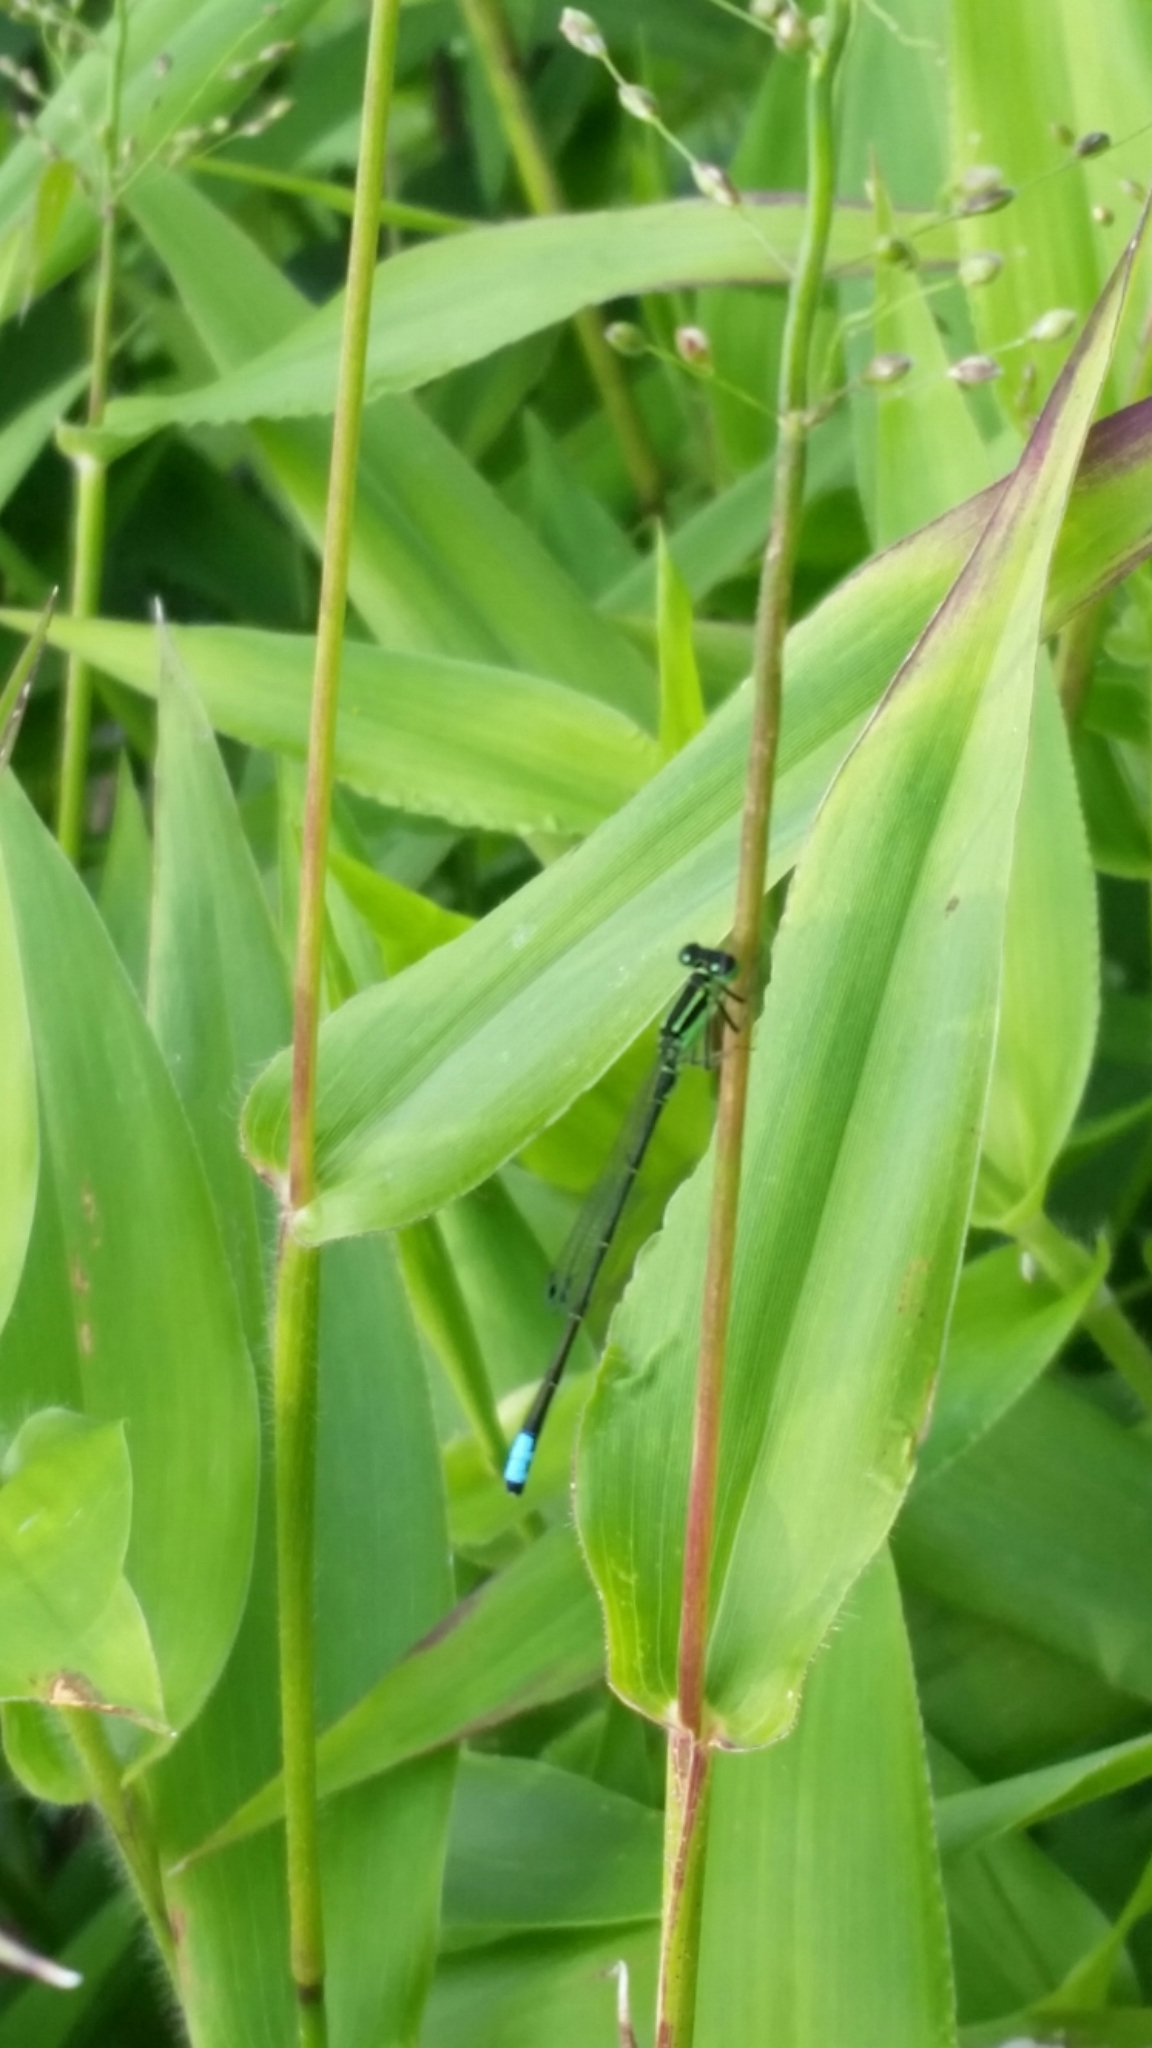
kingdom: Animalia
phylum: Arthropoda
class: Insecta
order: Odonata
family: Coenagrionidae
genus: Ischnura
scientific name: Ischnura verticalis
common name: Eastern forktail
